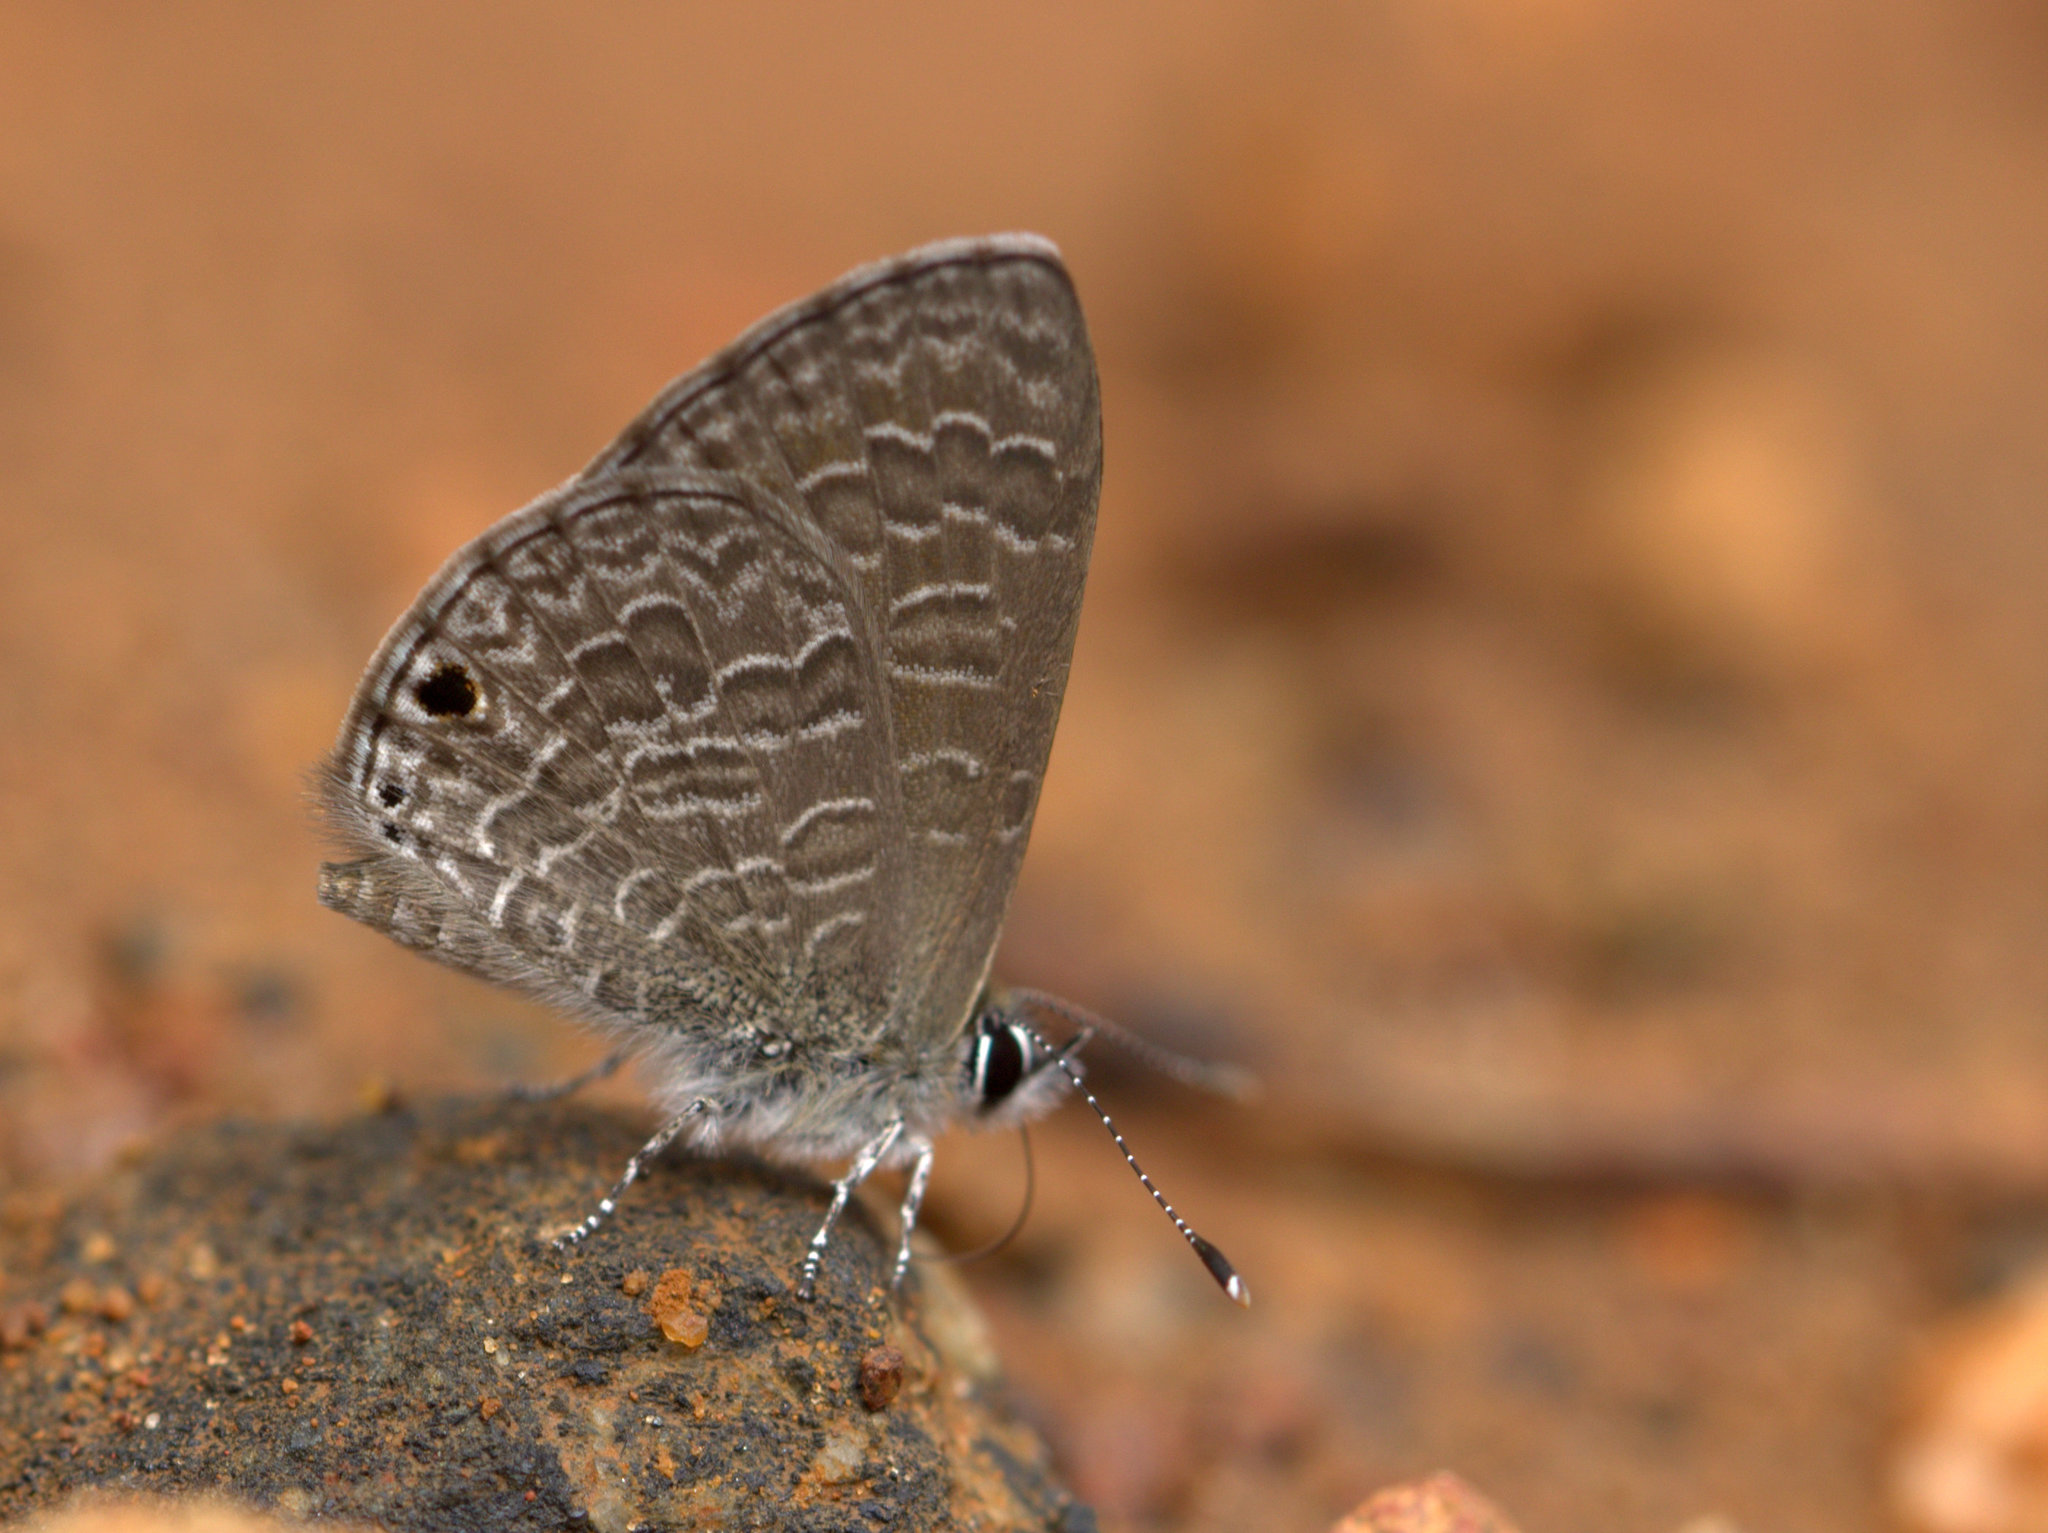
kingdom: Animalia
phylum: Arthropoda
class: Insecta
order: Lepidoptera
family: Lycaenidae
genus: Prosotas
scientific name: Prosotas noreia
